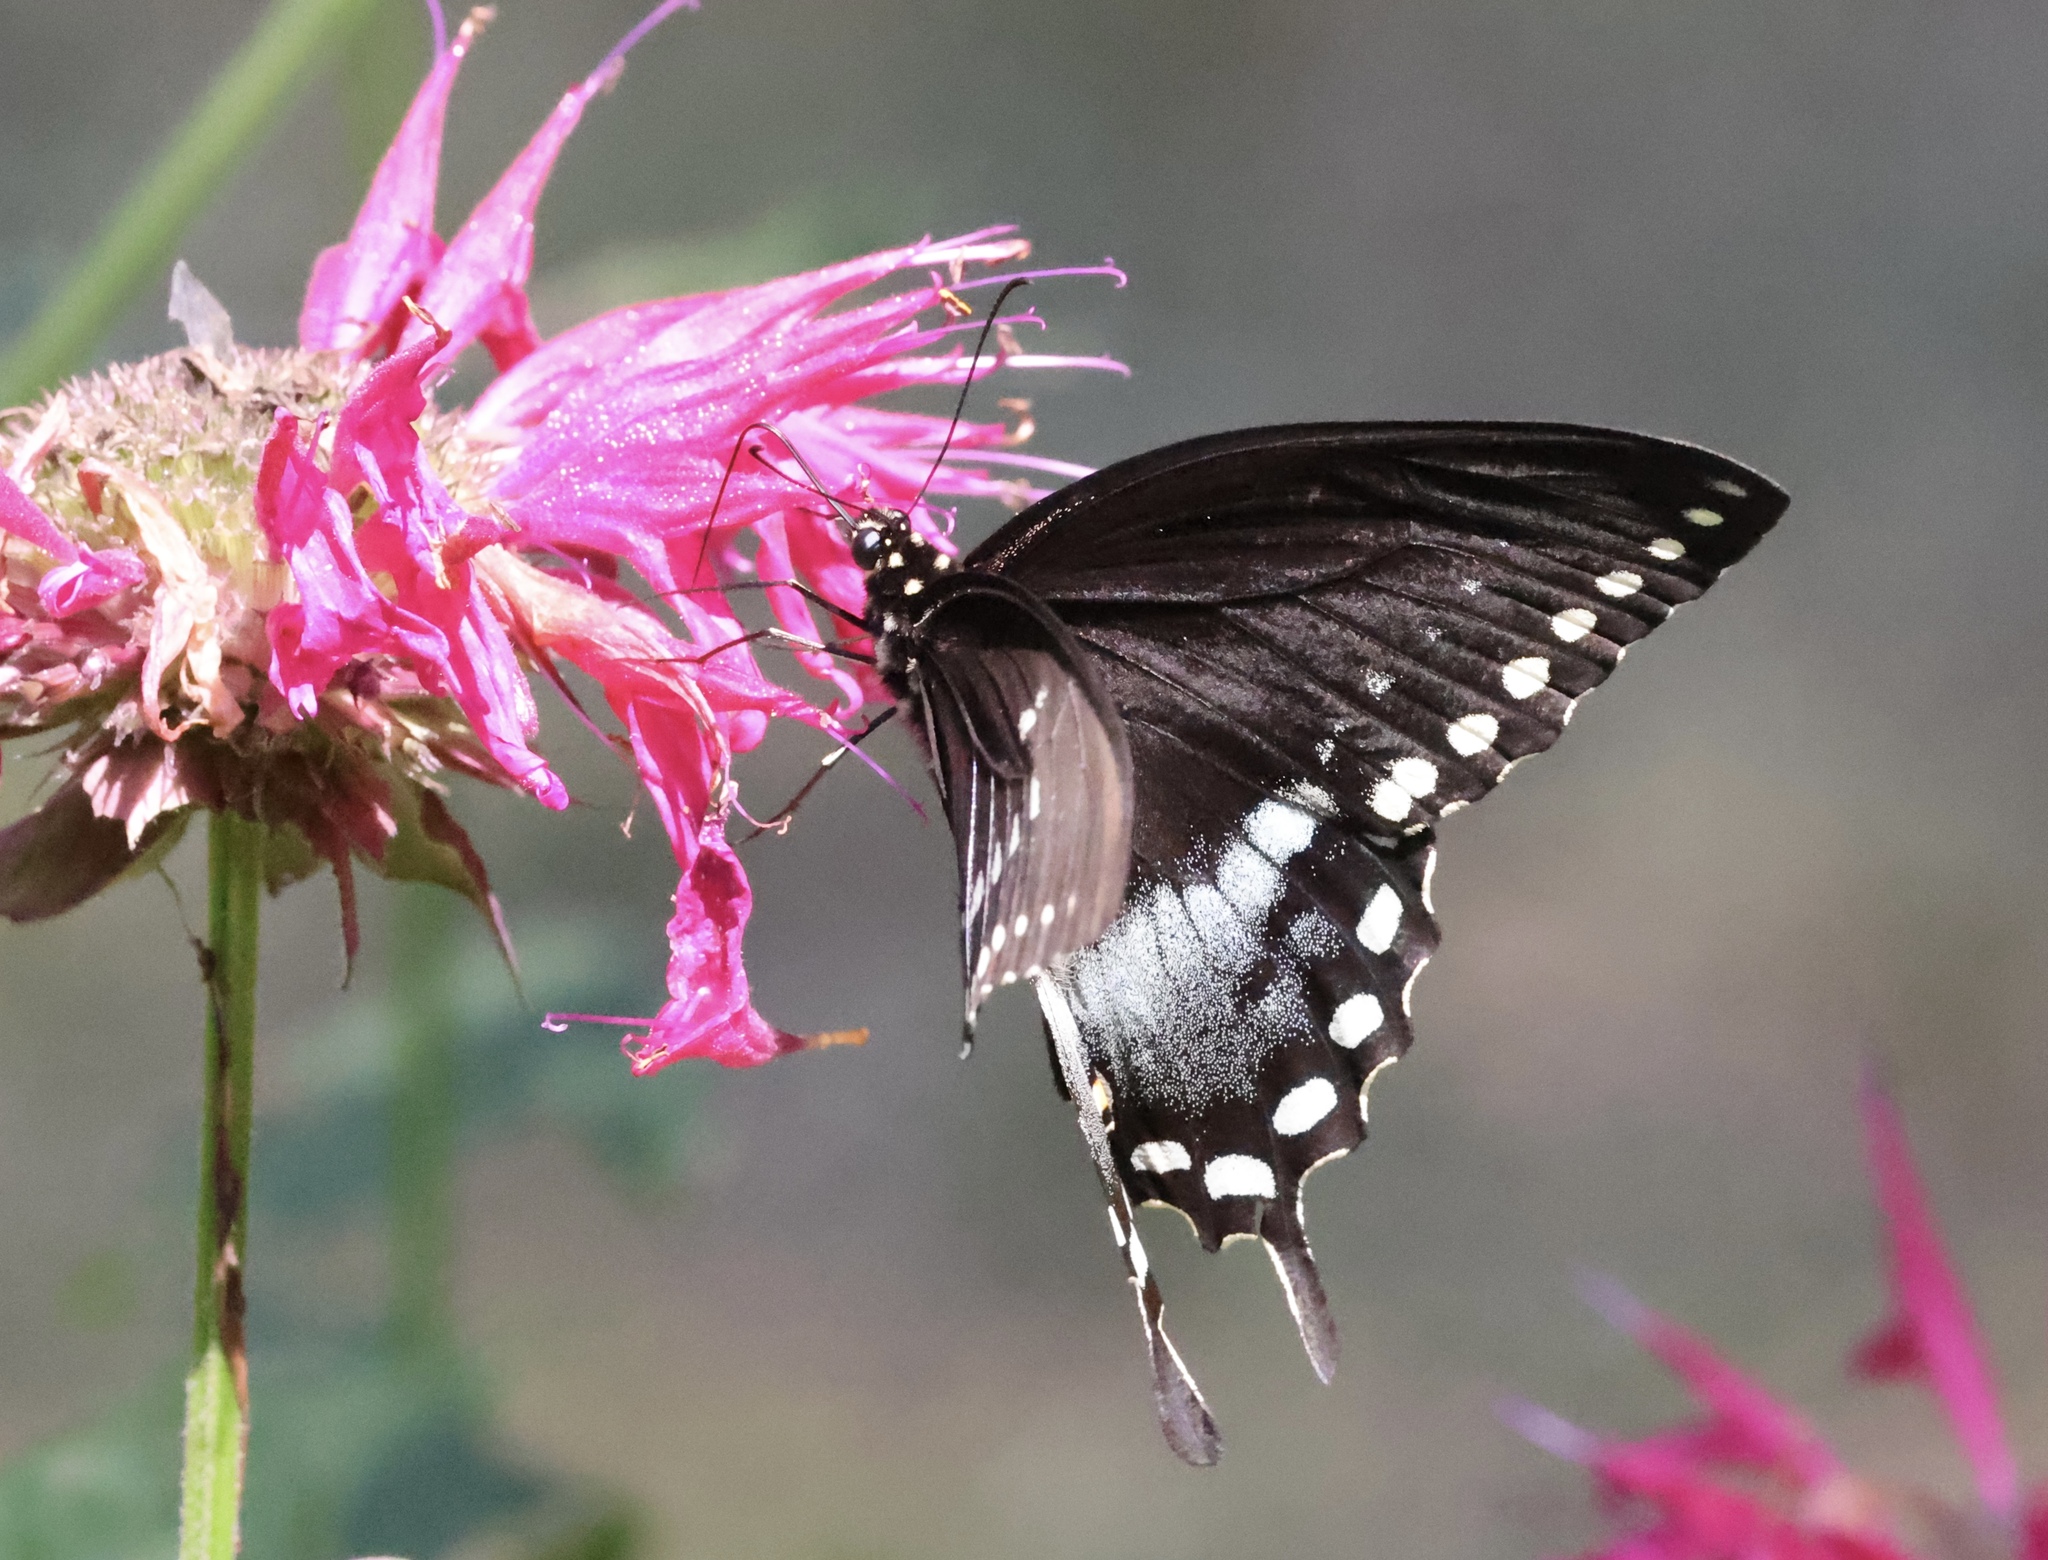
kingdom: Animalia
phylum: Arthropoda
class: Insecta
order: Lepidoptera
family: Papilionidae
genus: Papilio
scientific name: Papilio troilus
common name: Spicebush swallowtail
